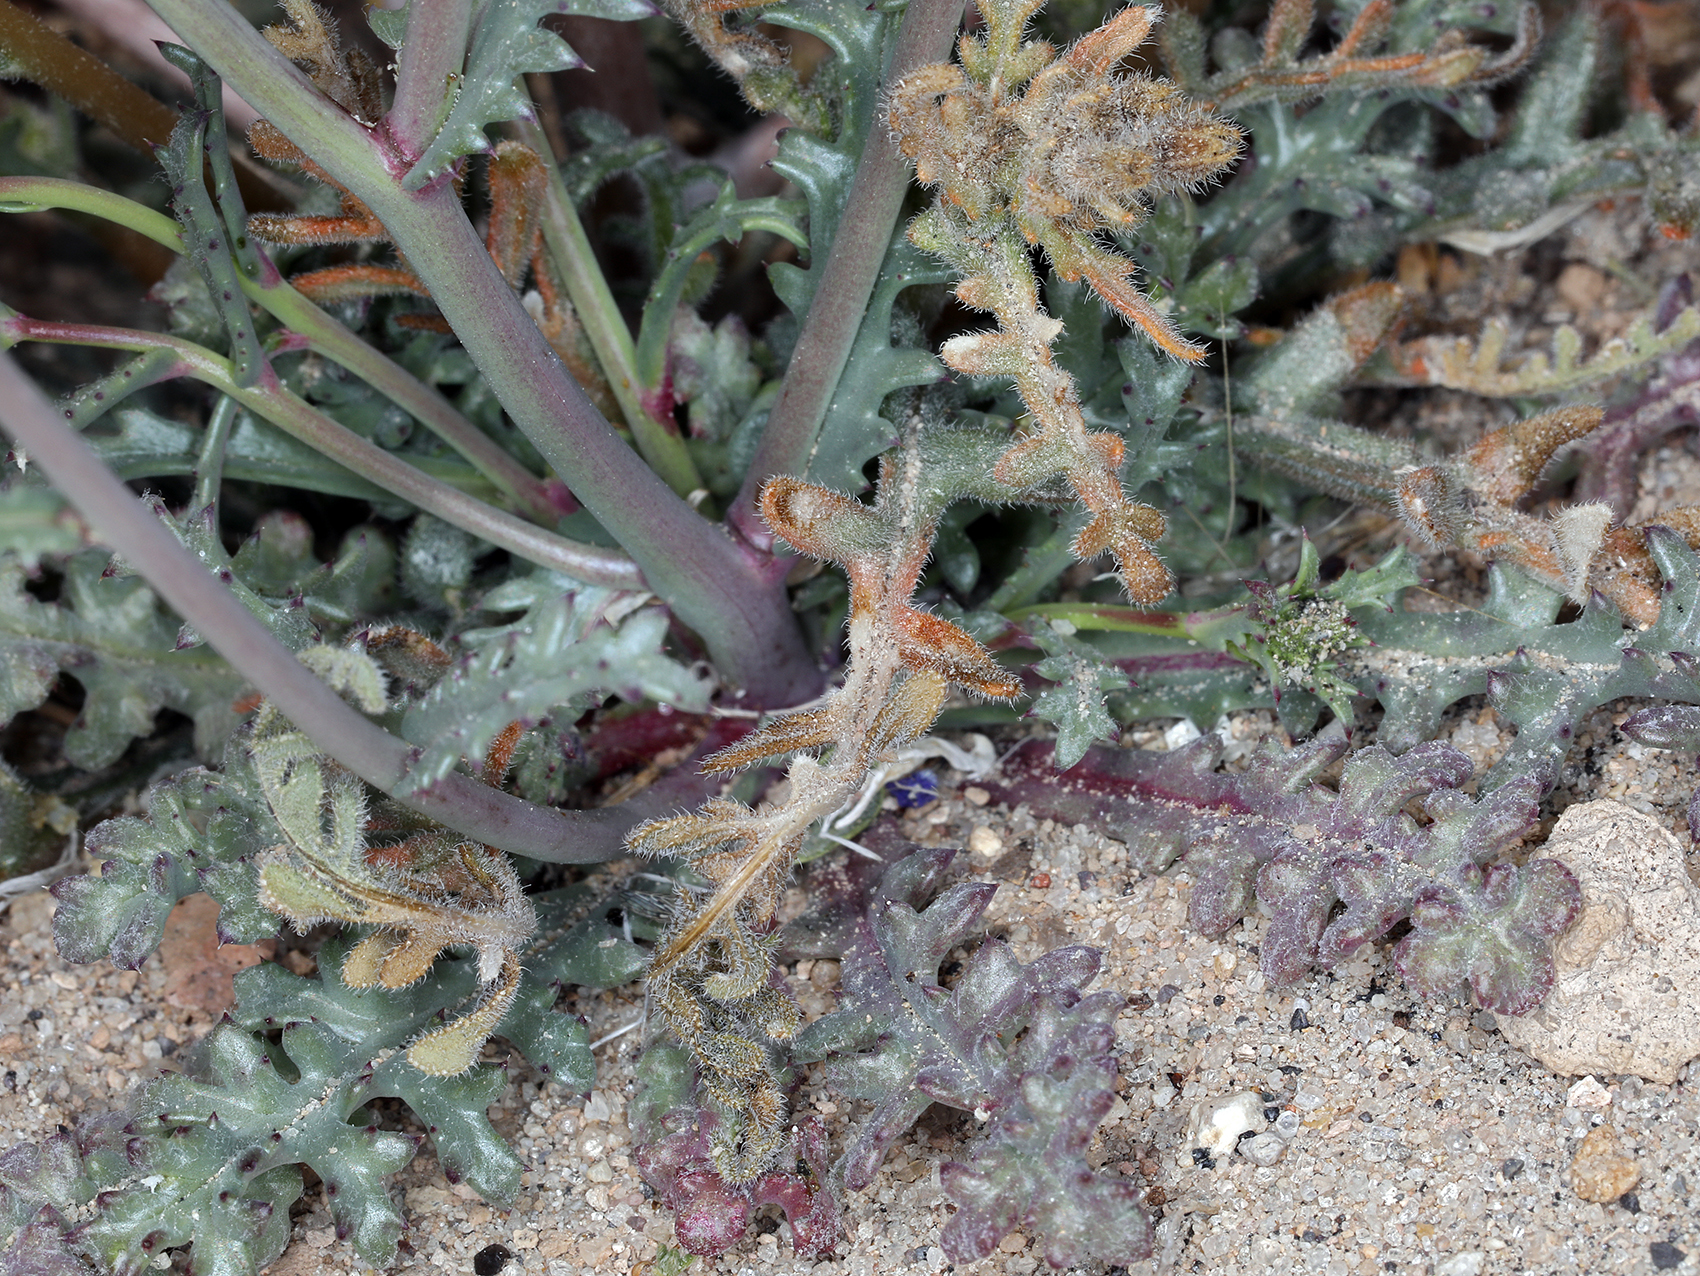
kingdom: Plantae
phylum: Tracheophyta
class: Magnoliopsida
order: Ericales
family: Polemoniaceae
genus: Gilia
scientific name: Gilia sinuata
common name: Rosy gilia
